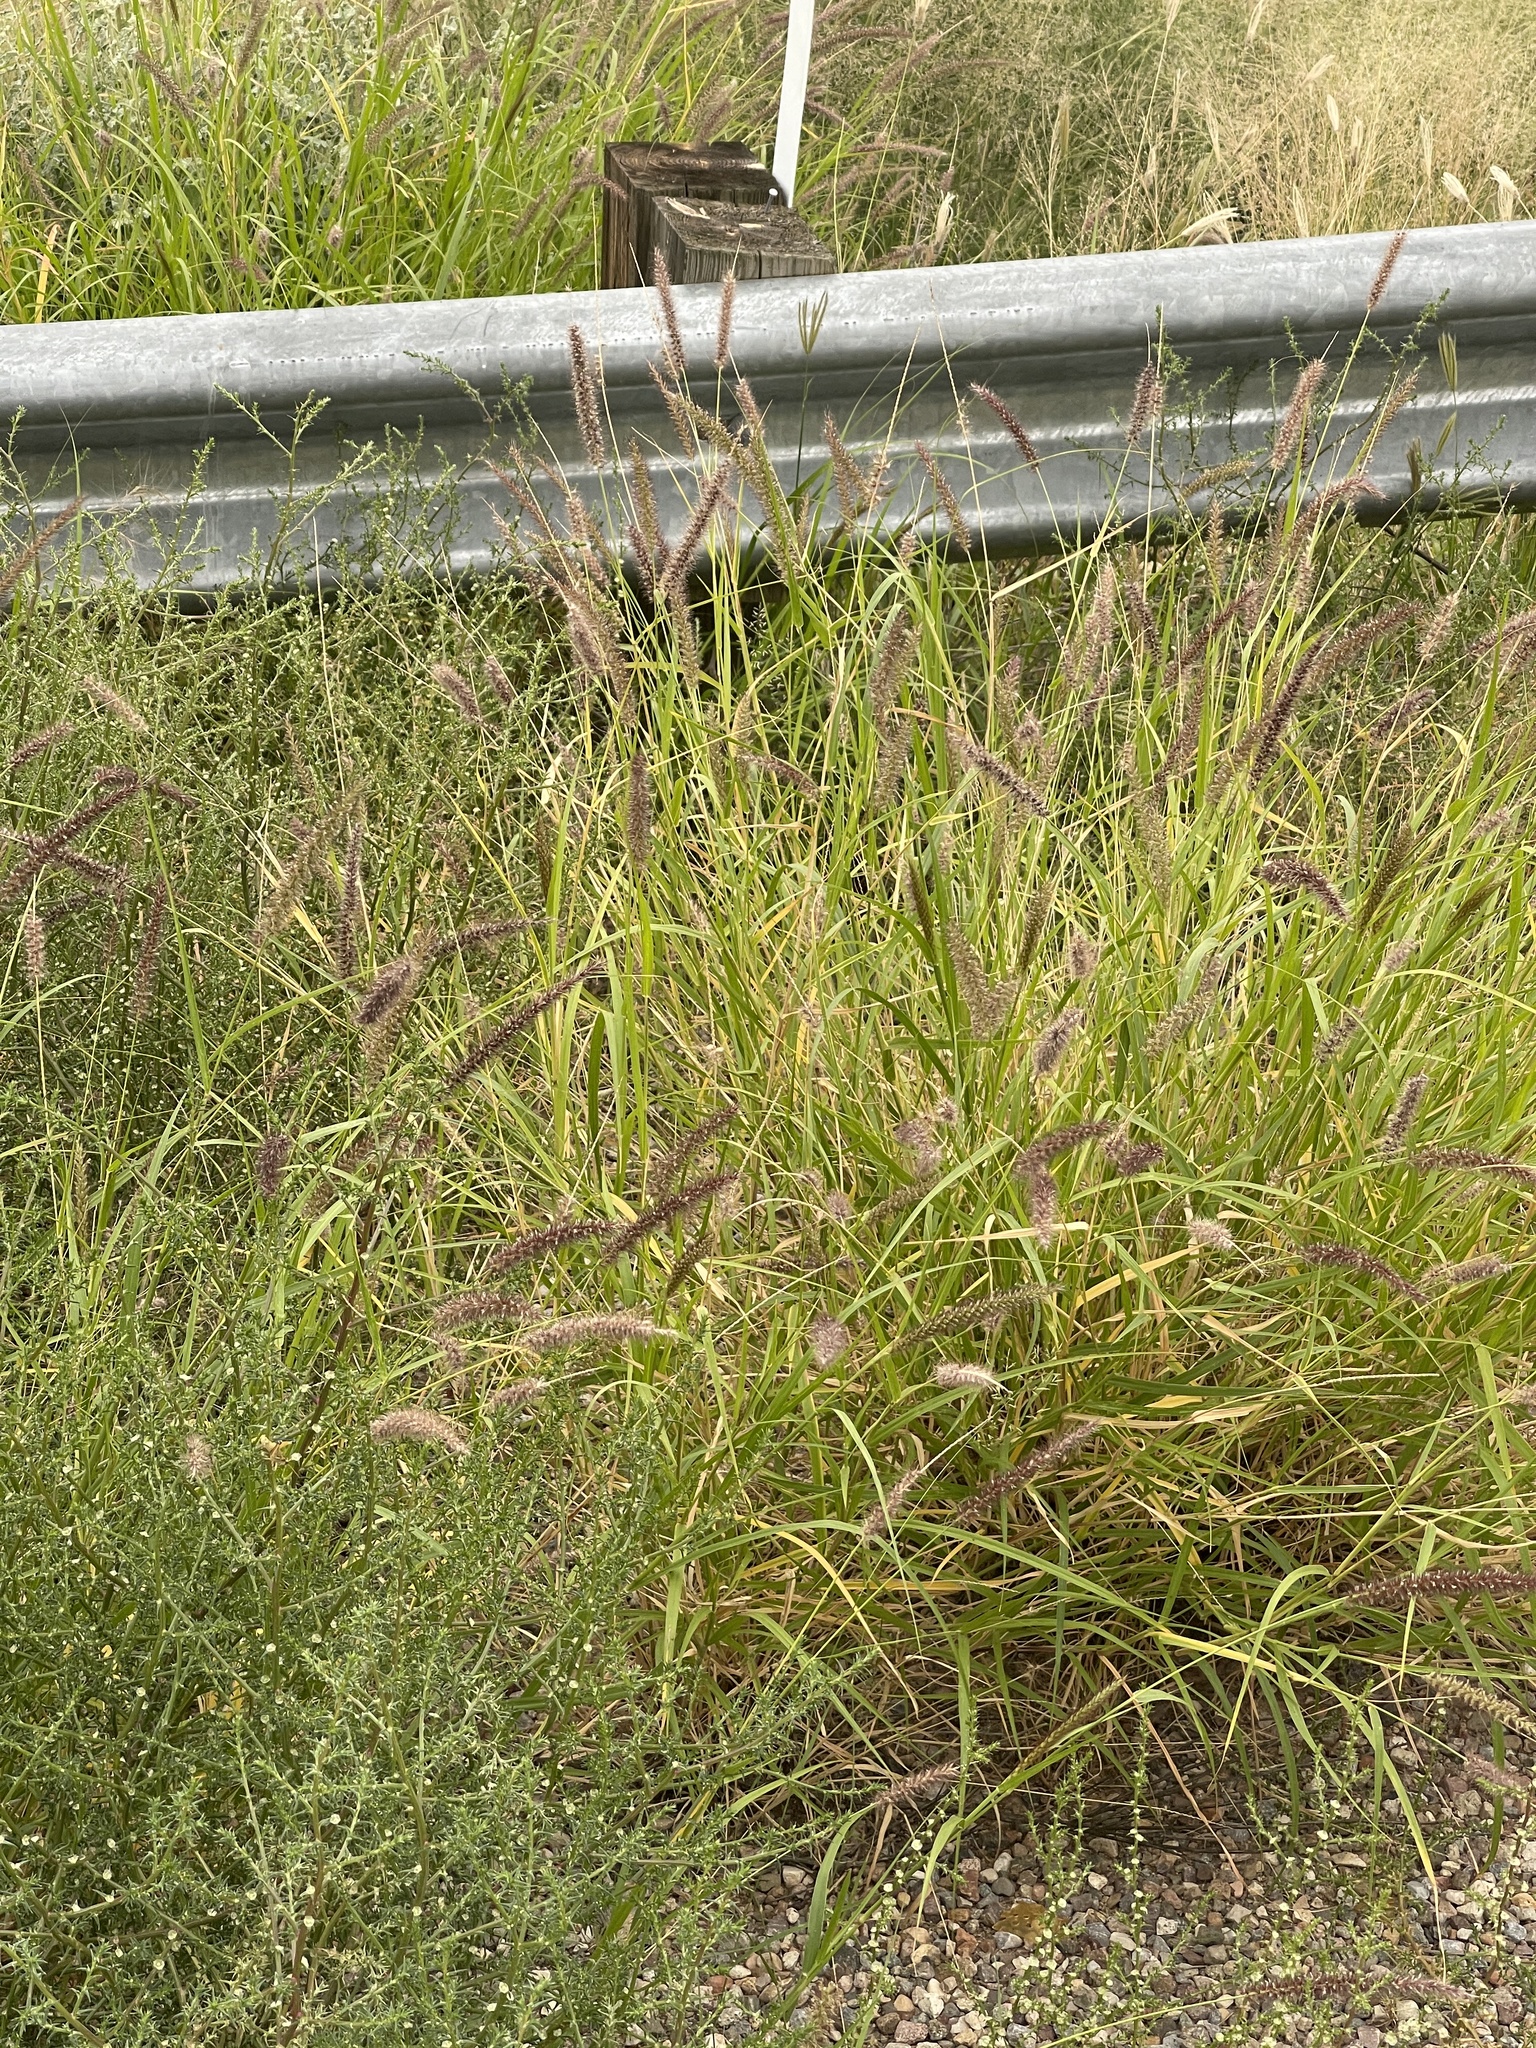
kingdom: Plantae
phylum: Tracheophyta
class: Liliopsida
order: Poales
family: Poaceae
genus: Cenchrus
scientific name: Cenchrus ciliaris
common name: Buffelgrass
